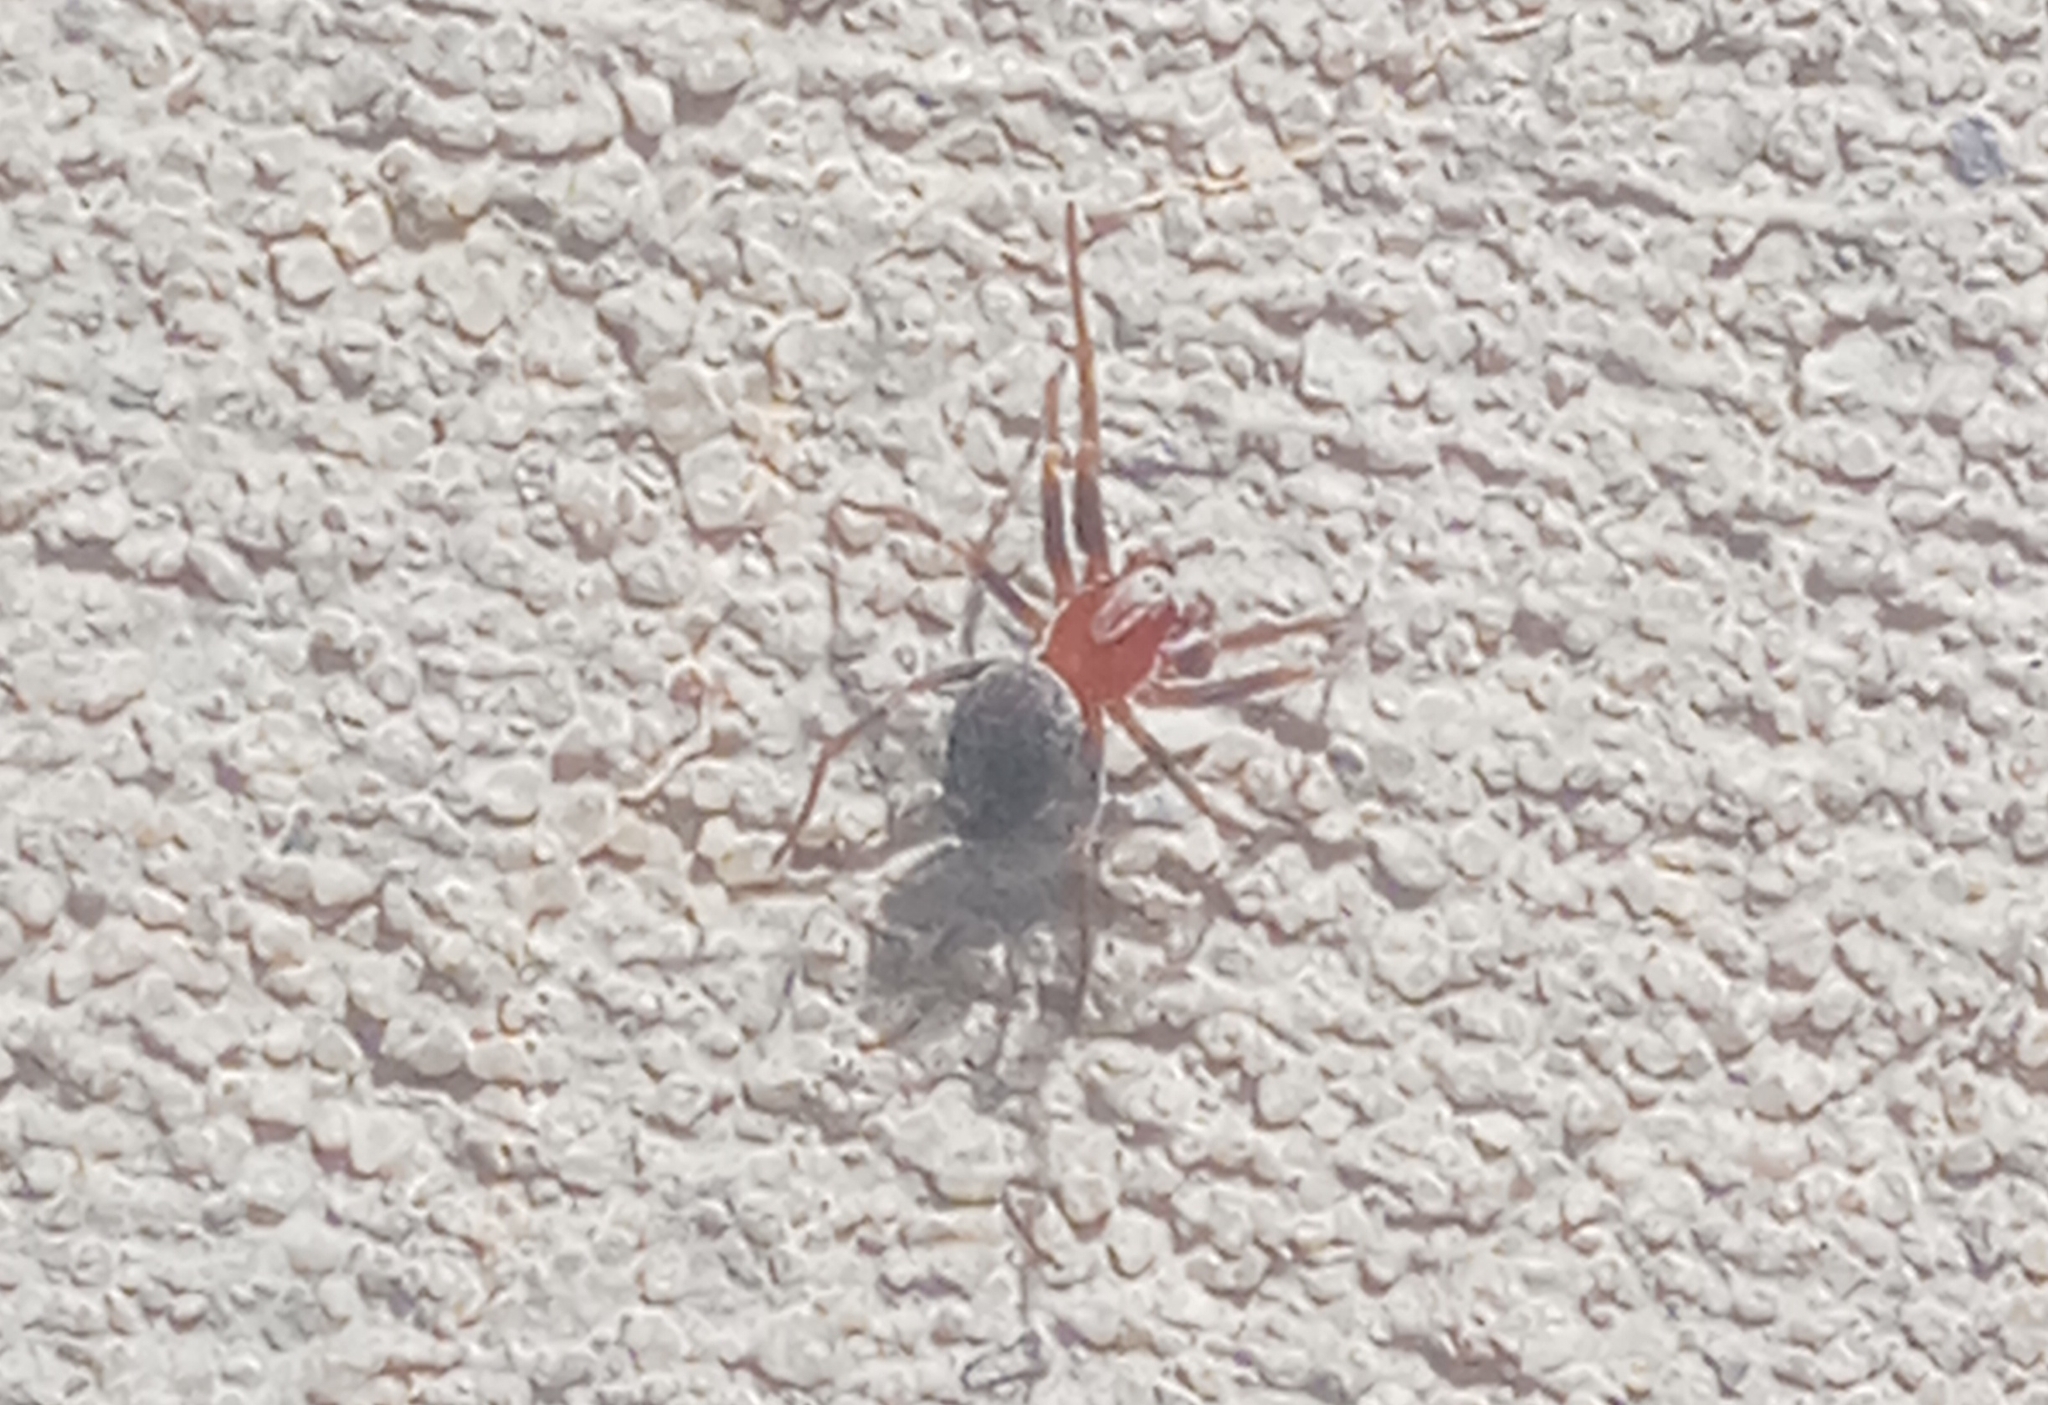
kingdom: Animalia
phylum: Arthropoda
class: Arachnida
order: Araneae
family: Dictynidae
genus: Marilynia
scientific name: Marilynia bicolor
